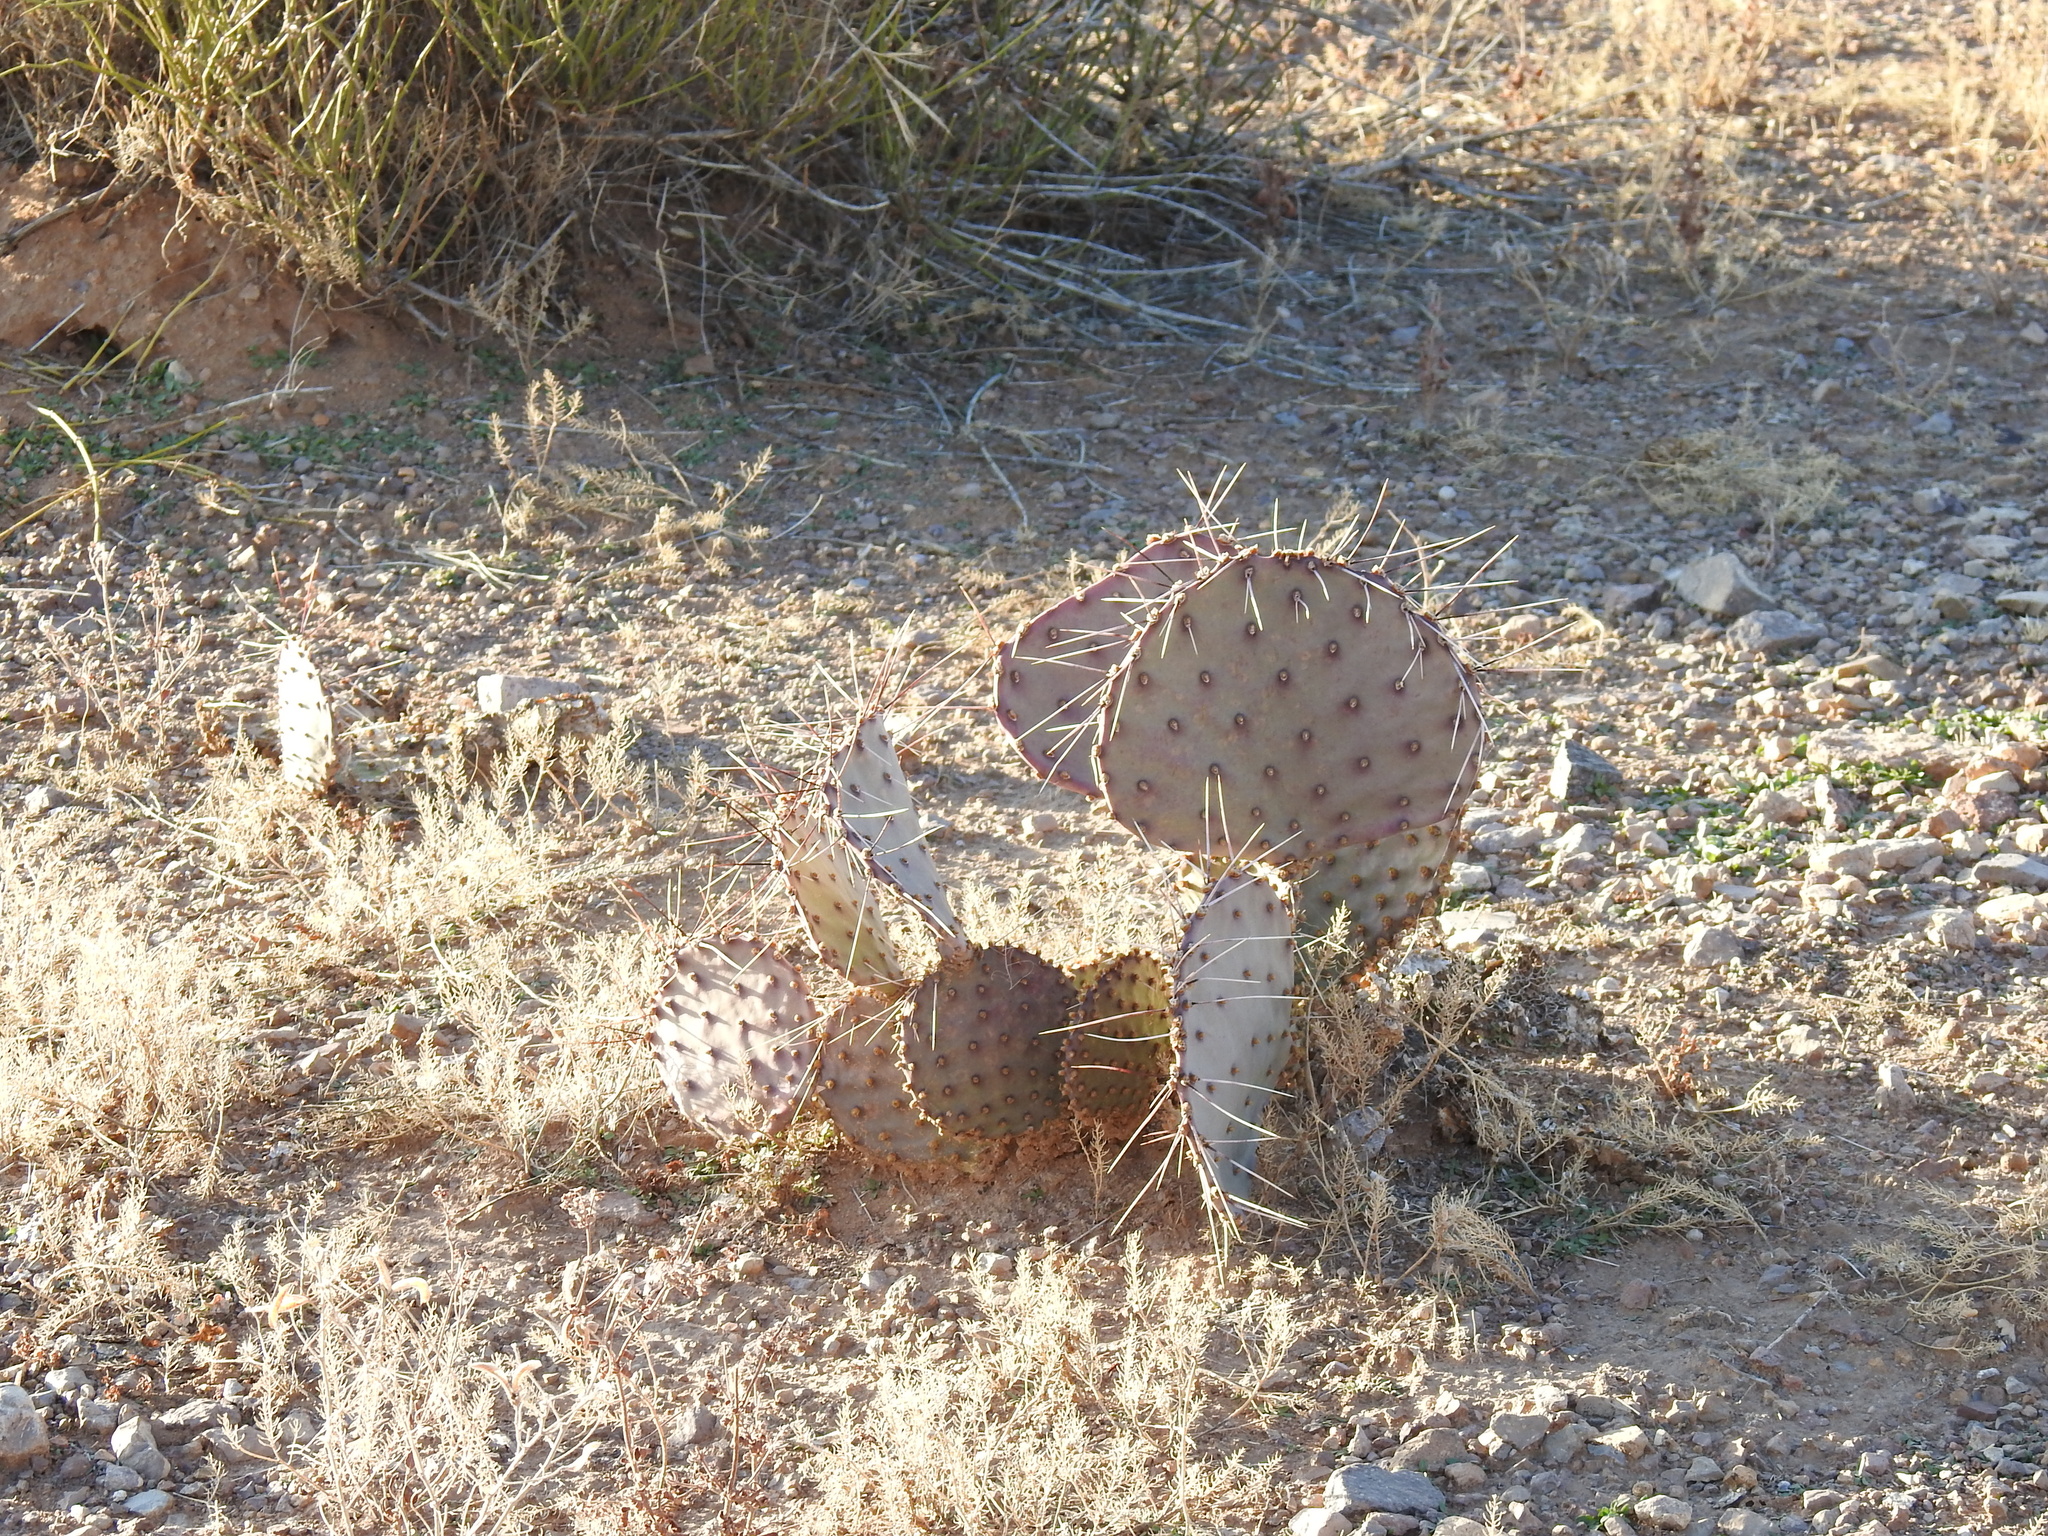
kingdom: Plantae
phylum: Tracheophyta
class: Magnoliopsida
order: Caryophyllales
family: Cactaceae
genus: Opuntia
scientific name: Opuntia macrocentra
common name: Purple prickly-pear
